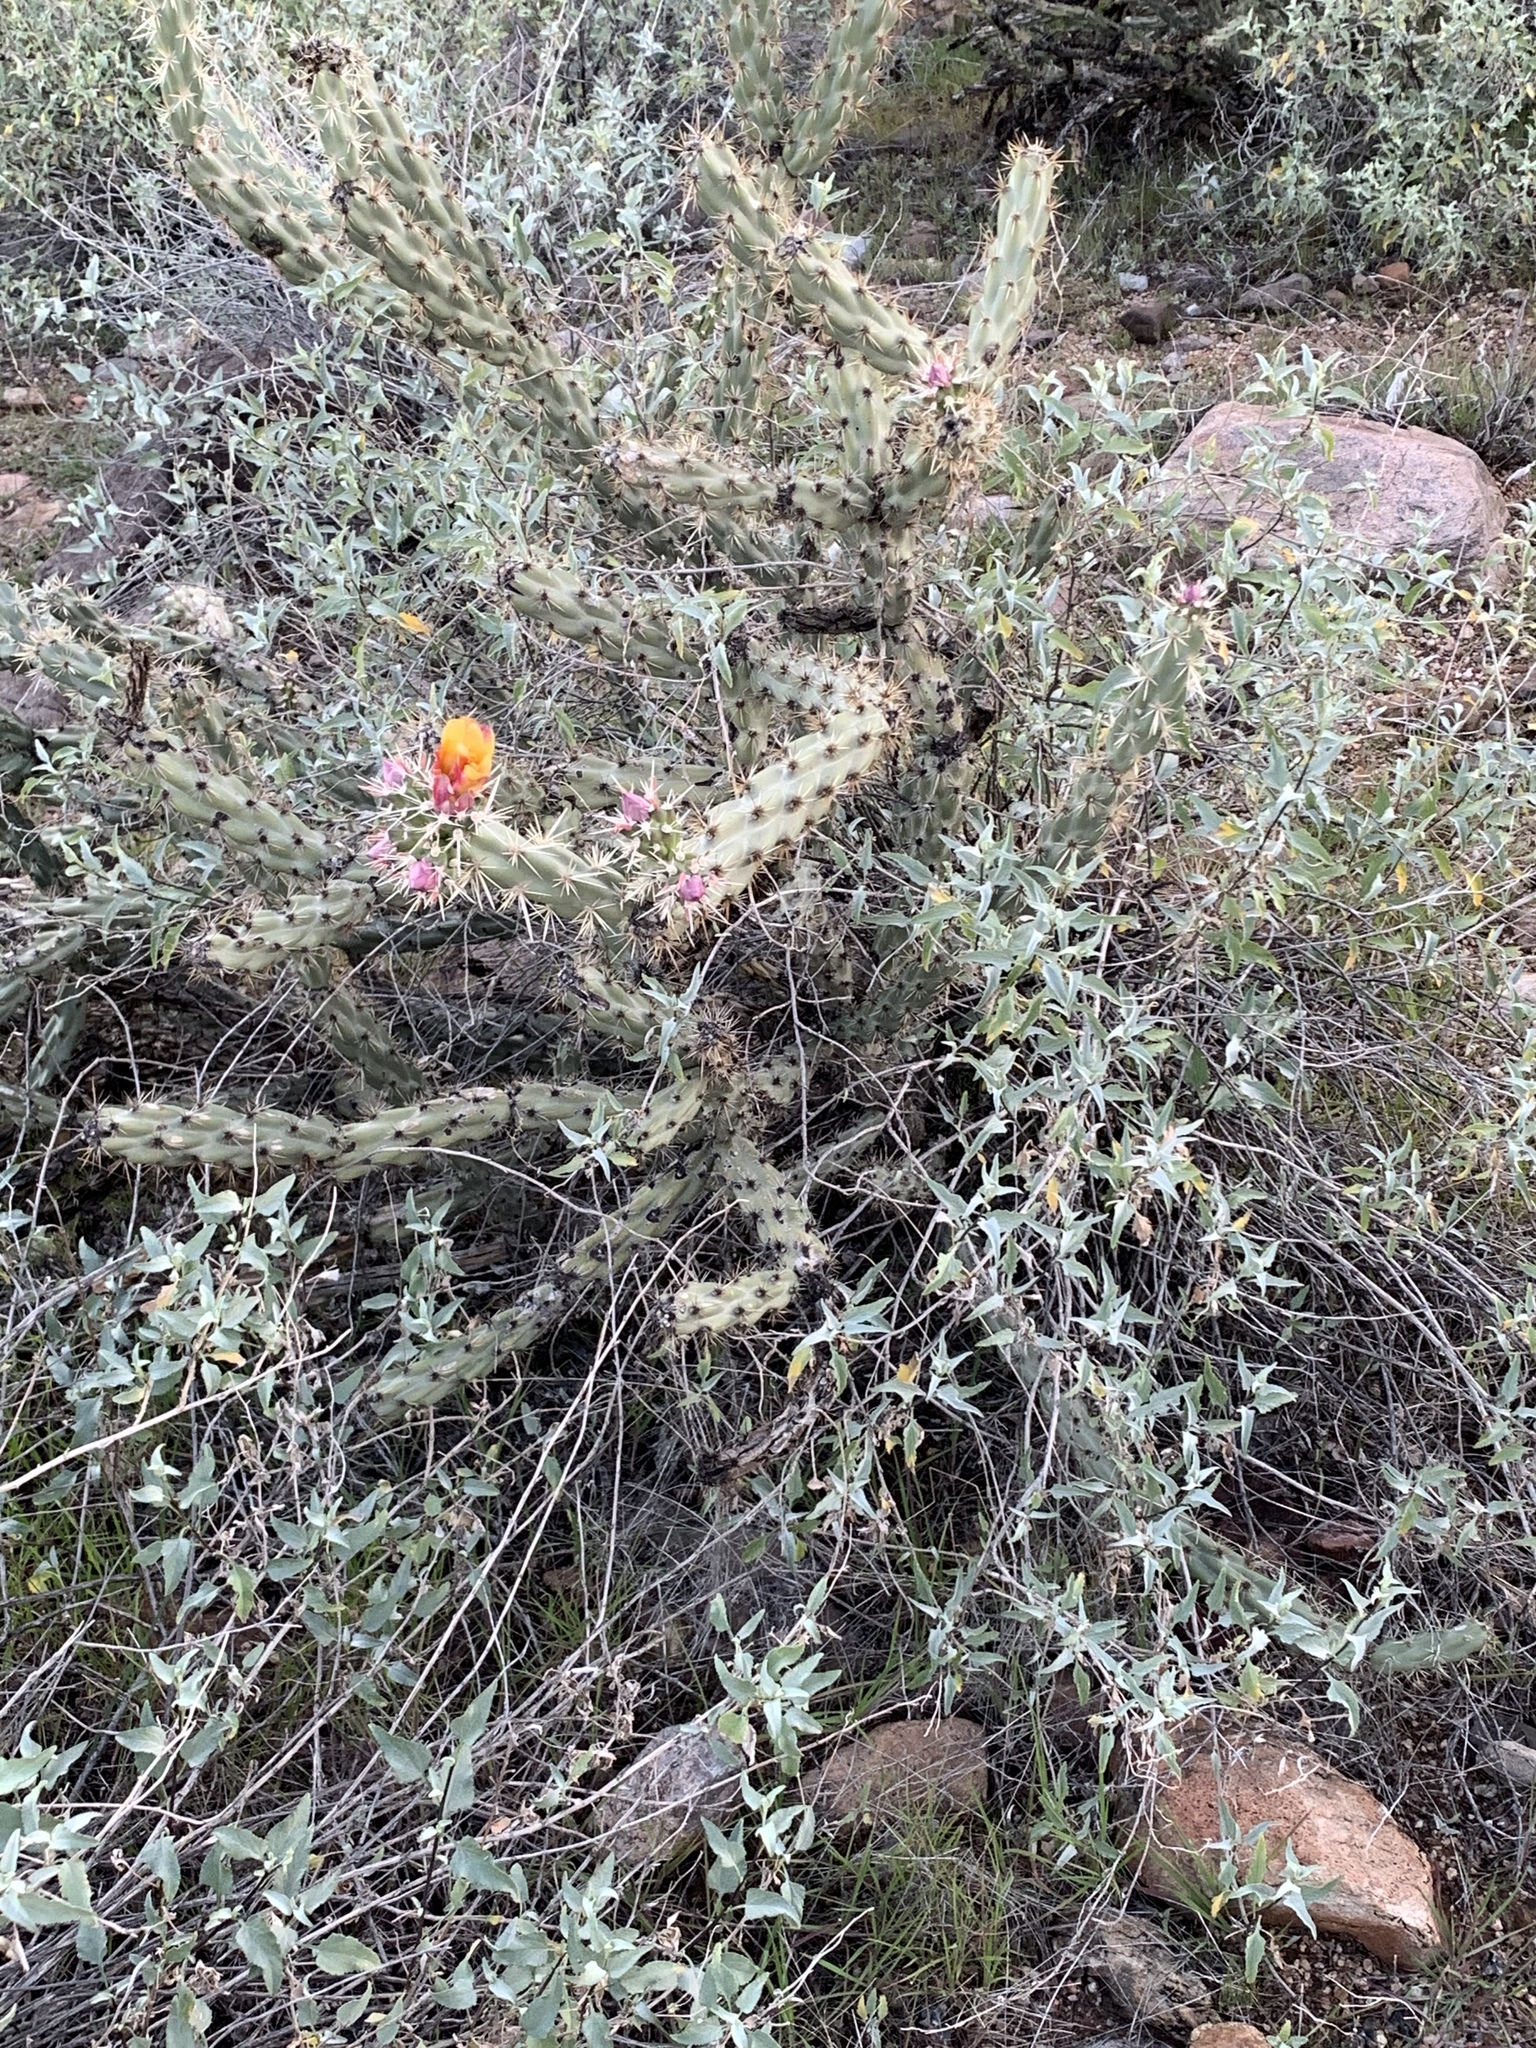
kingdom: Plantae
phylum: Tracheophyta
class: Magnoliopsida
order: Caryophyllales
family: Cactaceae
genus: Cylindropuntia
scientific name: Cylindropuntia acanthocarpa
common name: Buckhorn cholla
